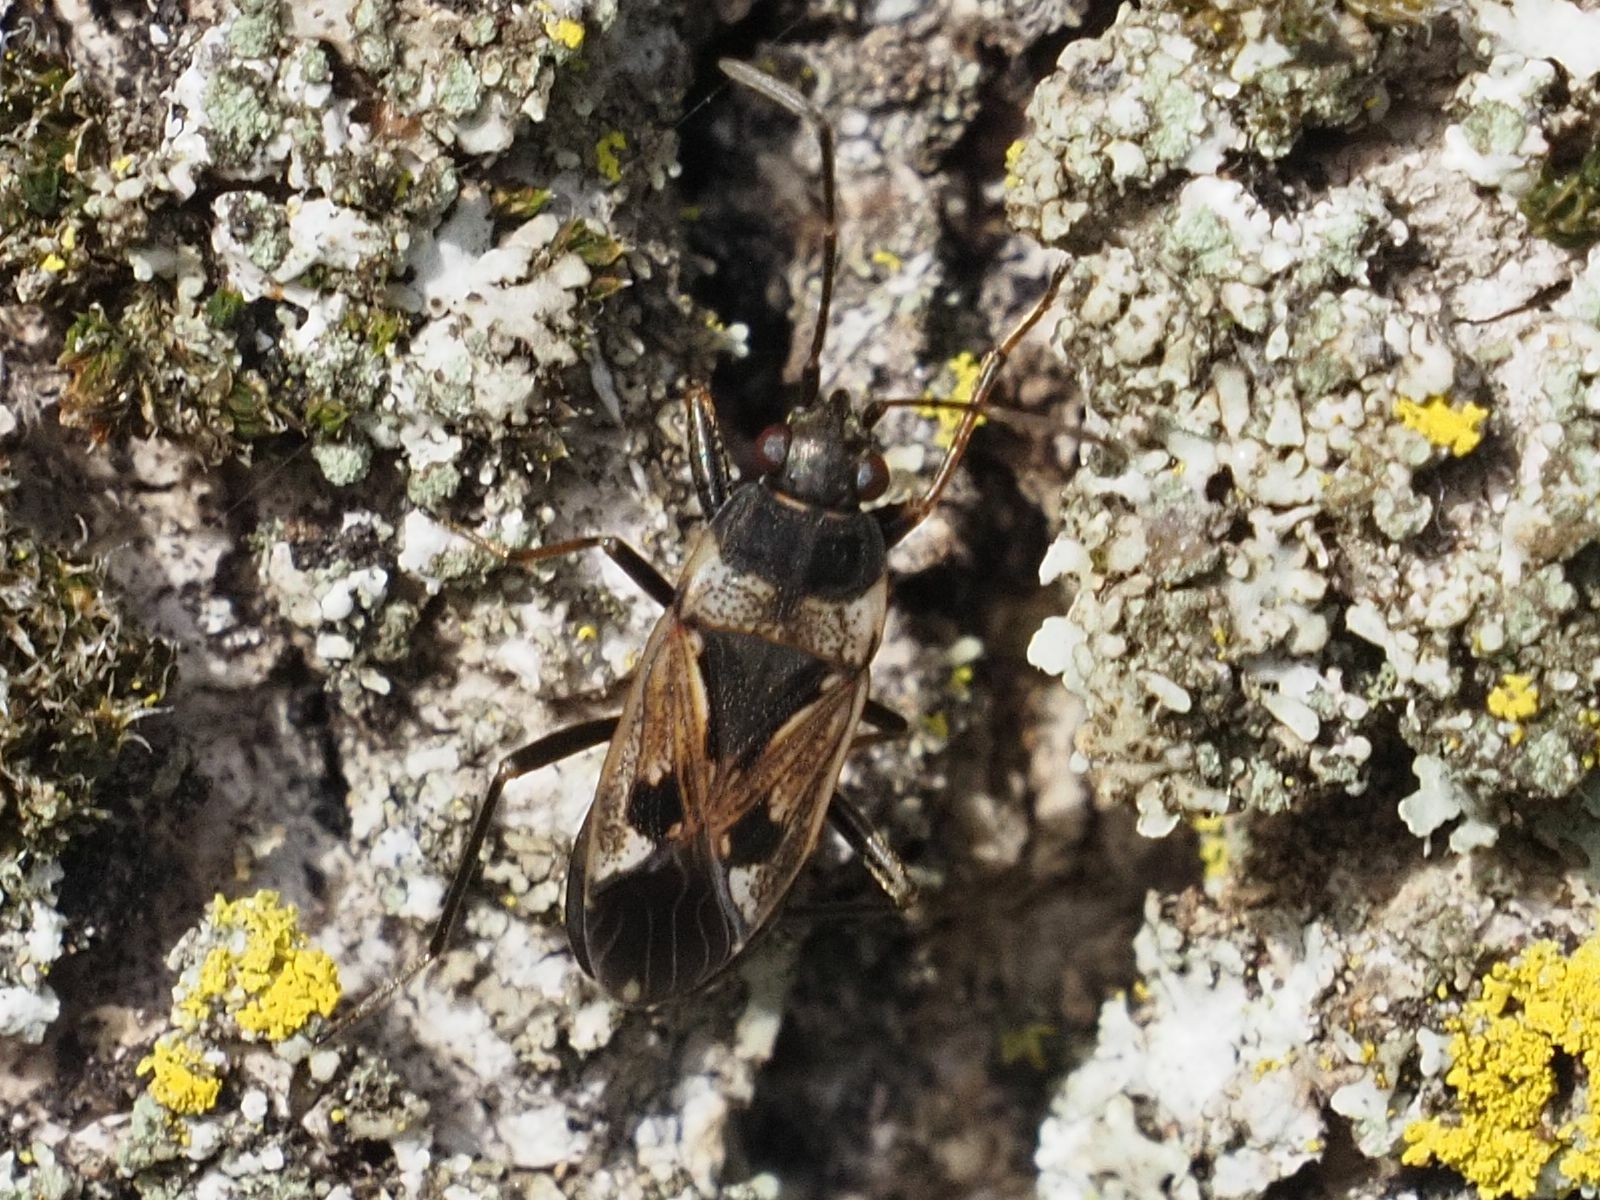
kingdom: Animalia
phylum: Arthropoda
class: Insecta
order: Hemiptera
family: Rhyparochromidae
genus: Rhyparochromus
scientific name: Rhyparochromus vulgaris
